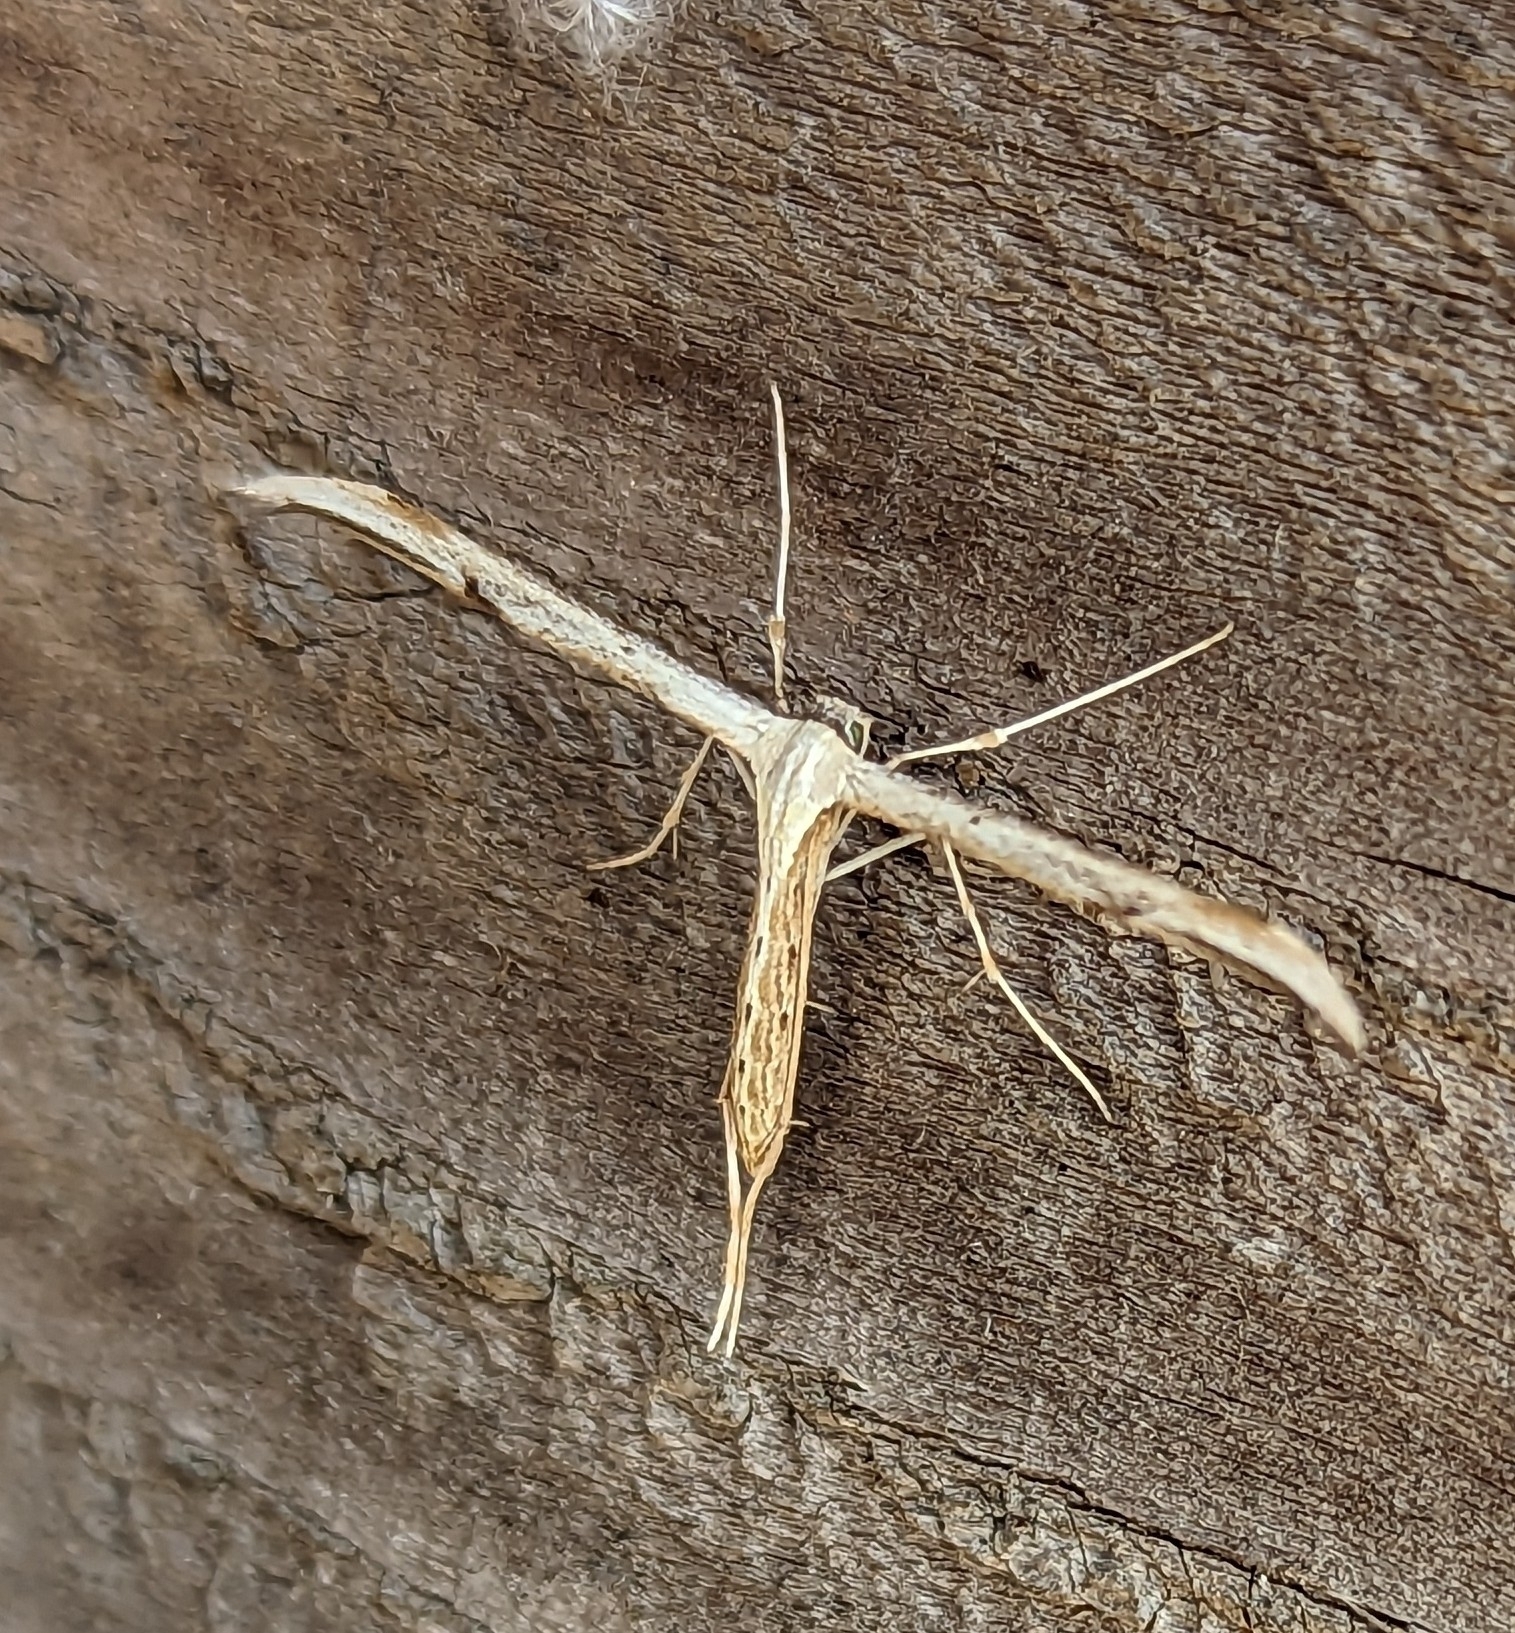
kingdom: Animalia
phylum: Arthropoda
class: Insecta
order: Lepidoptera
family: Pterophoridae
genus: Emmelina
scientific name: Emmelina monodactyla
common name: Common plume
